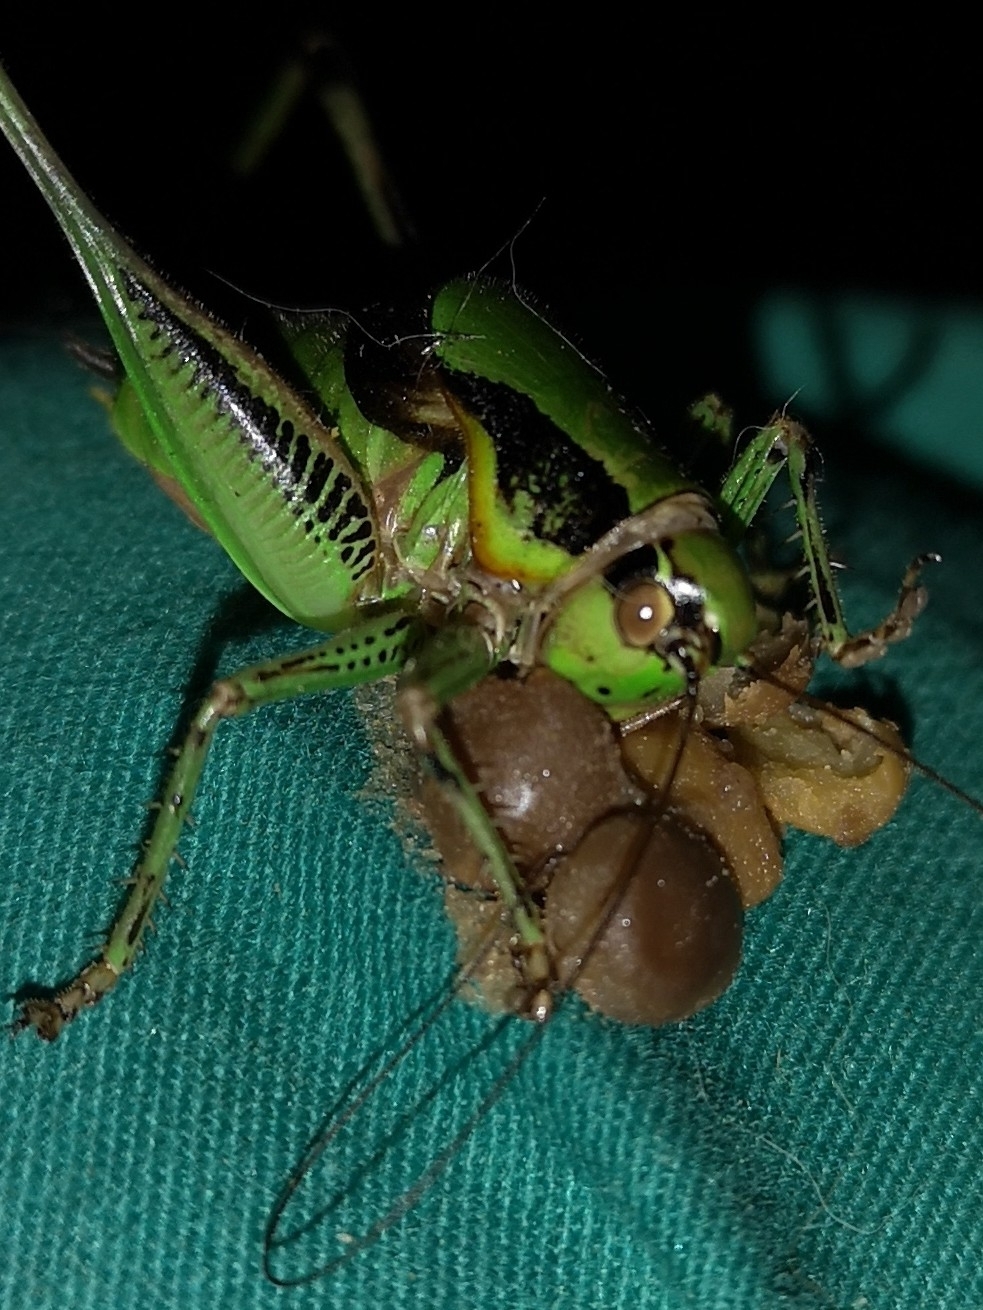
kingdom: Animalia
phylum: Arthropoda
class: Insecta
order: Orthoptera
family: Tettigoniidae
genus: Eupholidoptera
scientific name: Eupholidoptera schmidti
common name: Schmidt's marbled bush-cricket
